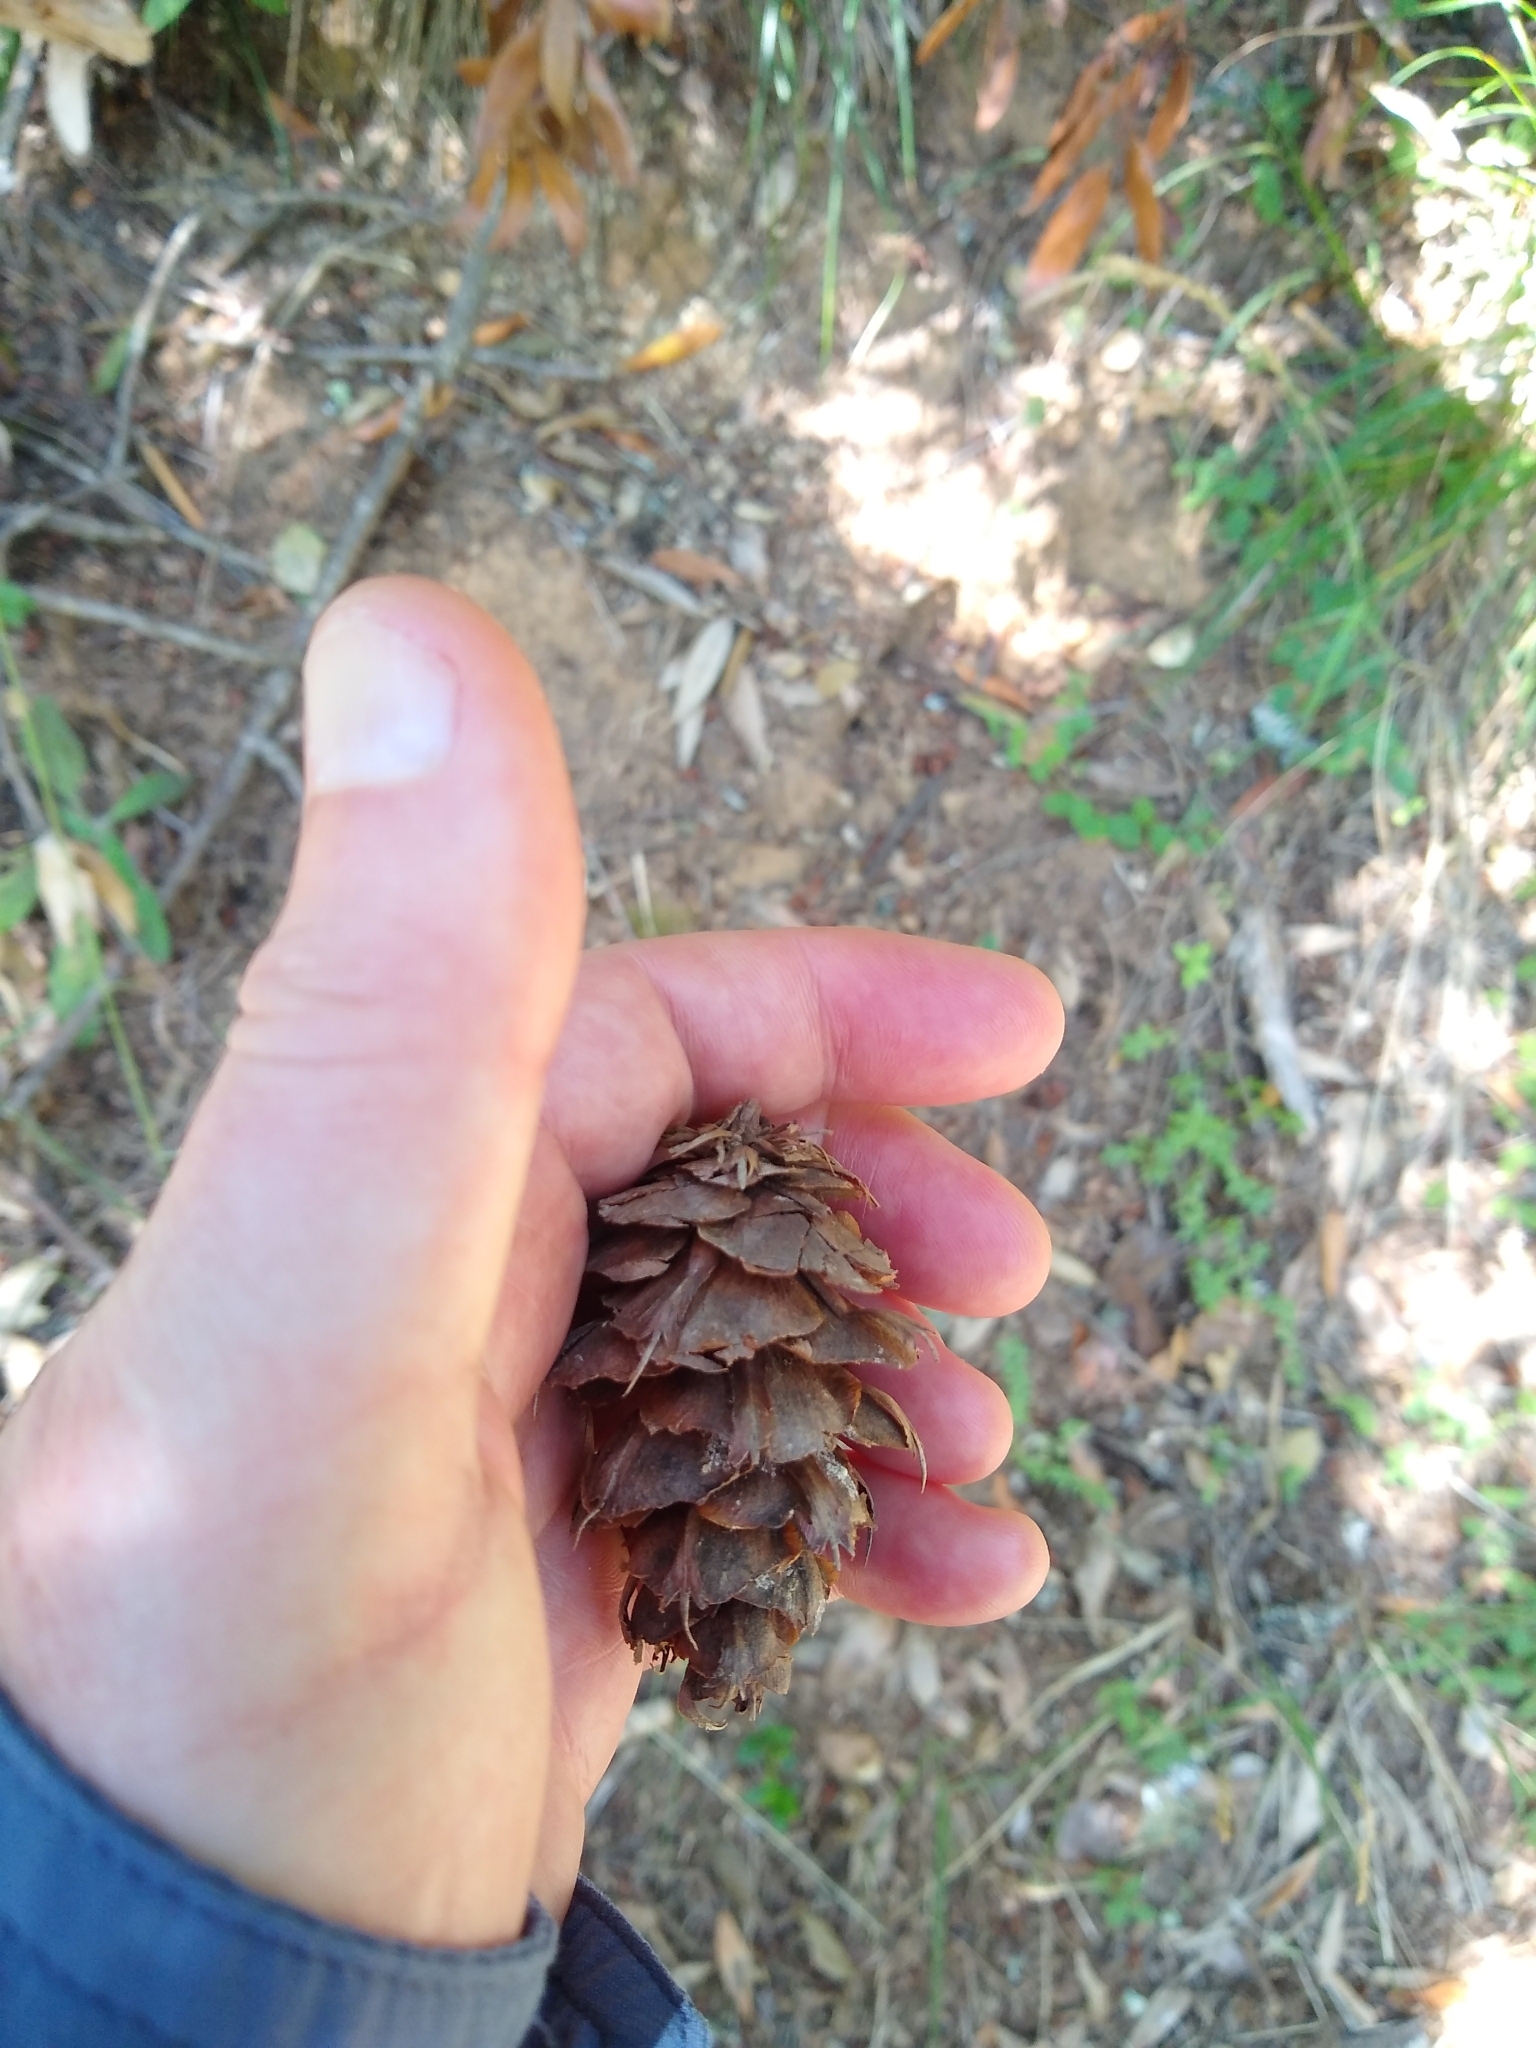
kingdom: Plantae
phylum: Tracheophyta
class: Pinopsida
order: Pinales
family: Pinaceae
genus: Pseudotsuga
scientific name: Pseudotsuga menziesii
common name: Douglas fir
